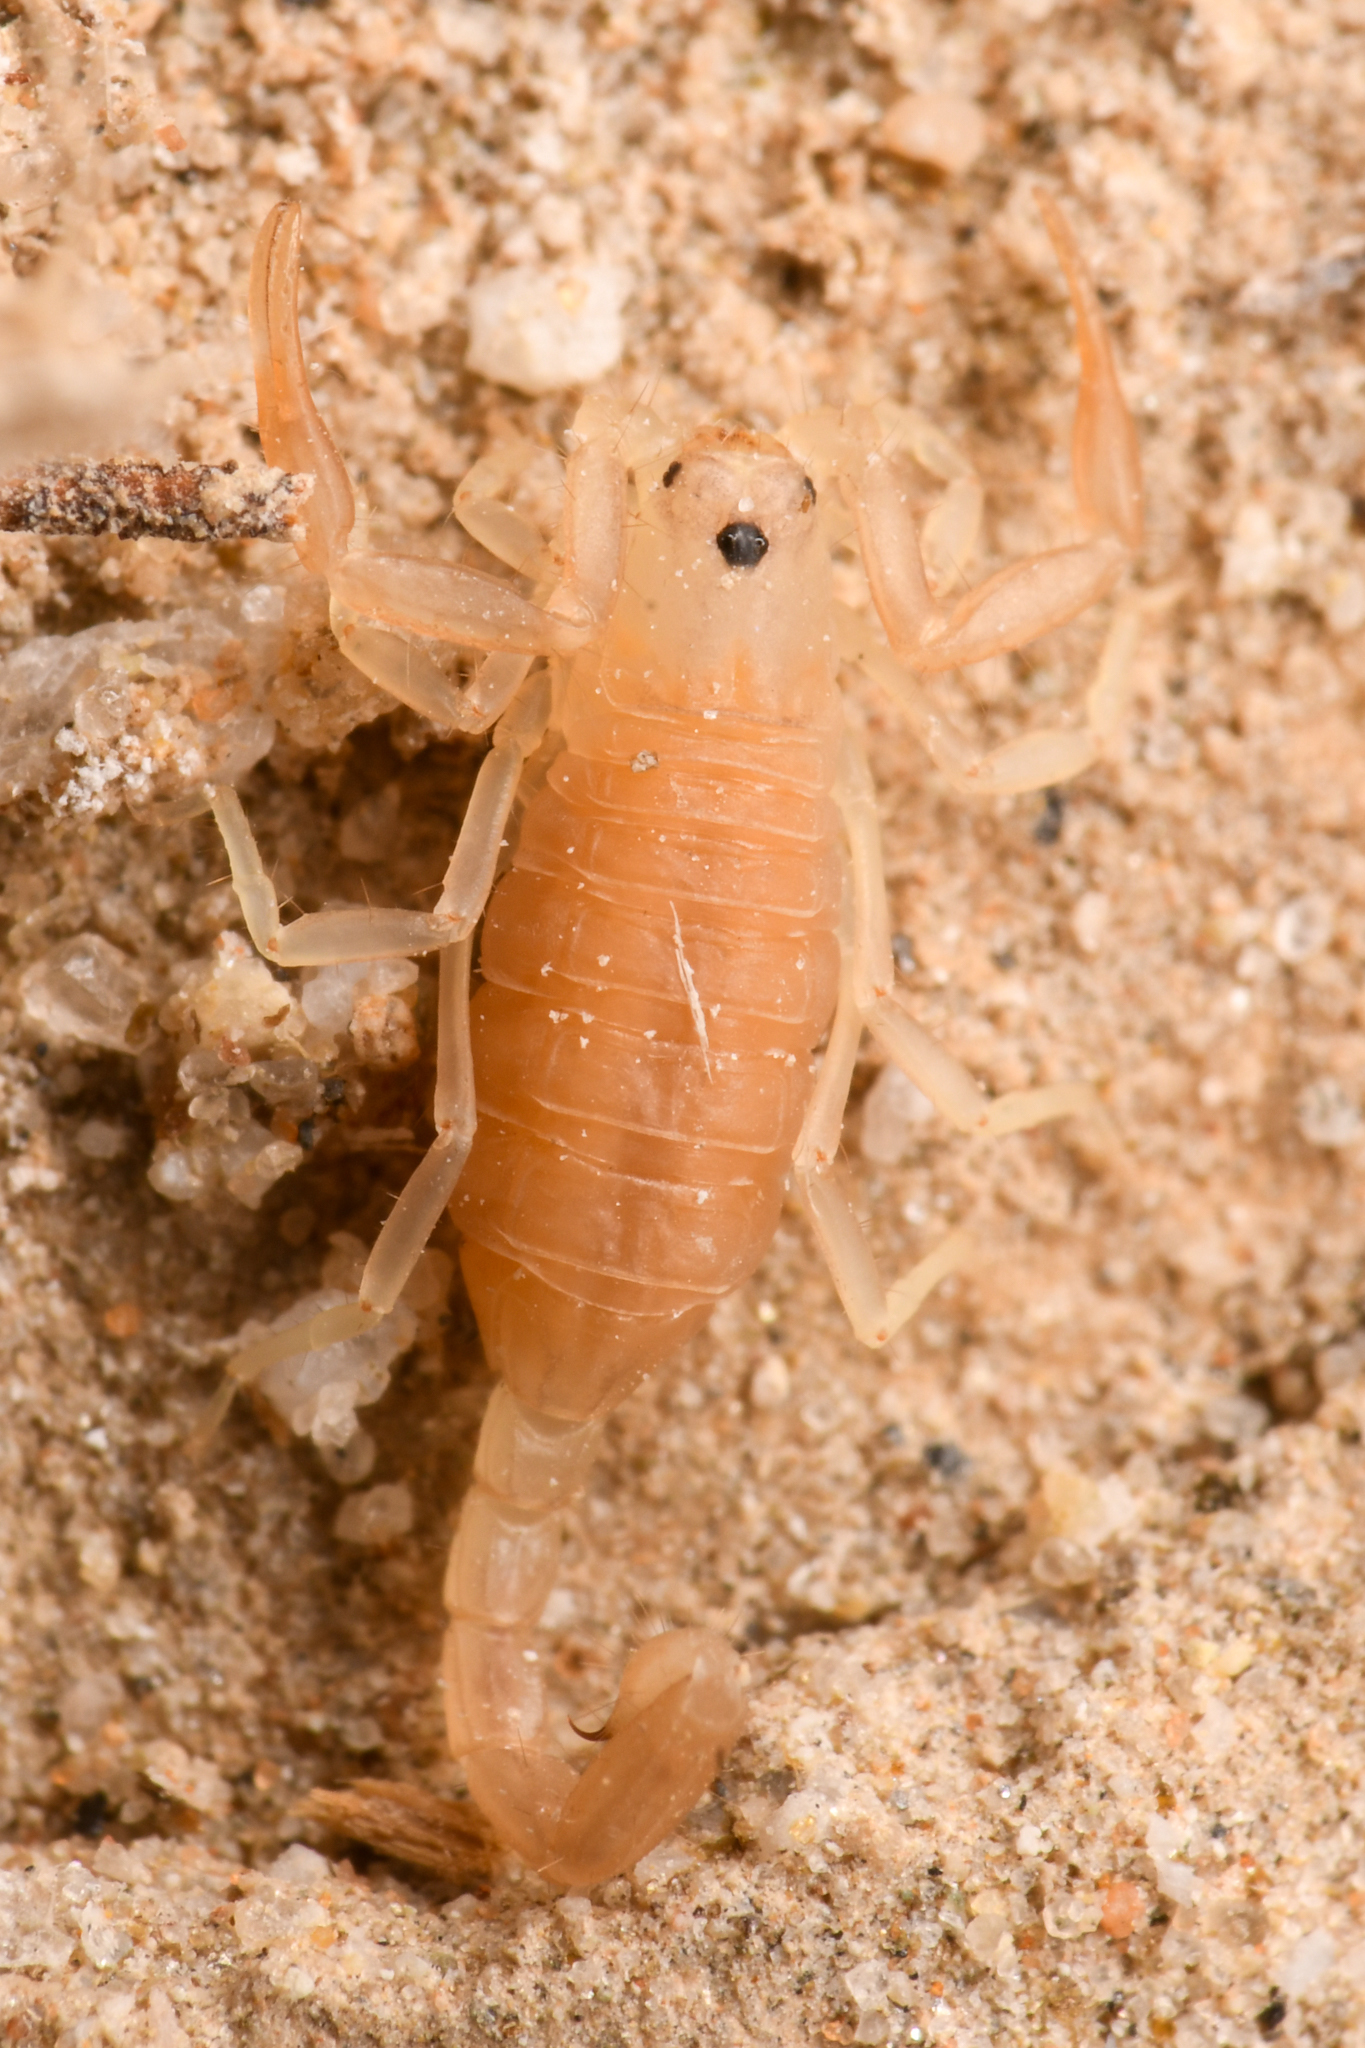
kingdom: Animalia
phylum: Arthropoda
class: Arachnida
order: Scorpiones
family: Vaejovidae
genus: Paravaejovis
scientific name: Paravaejovis waeringi
